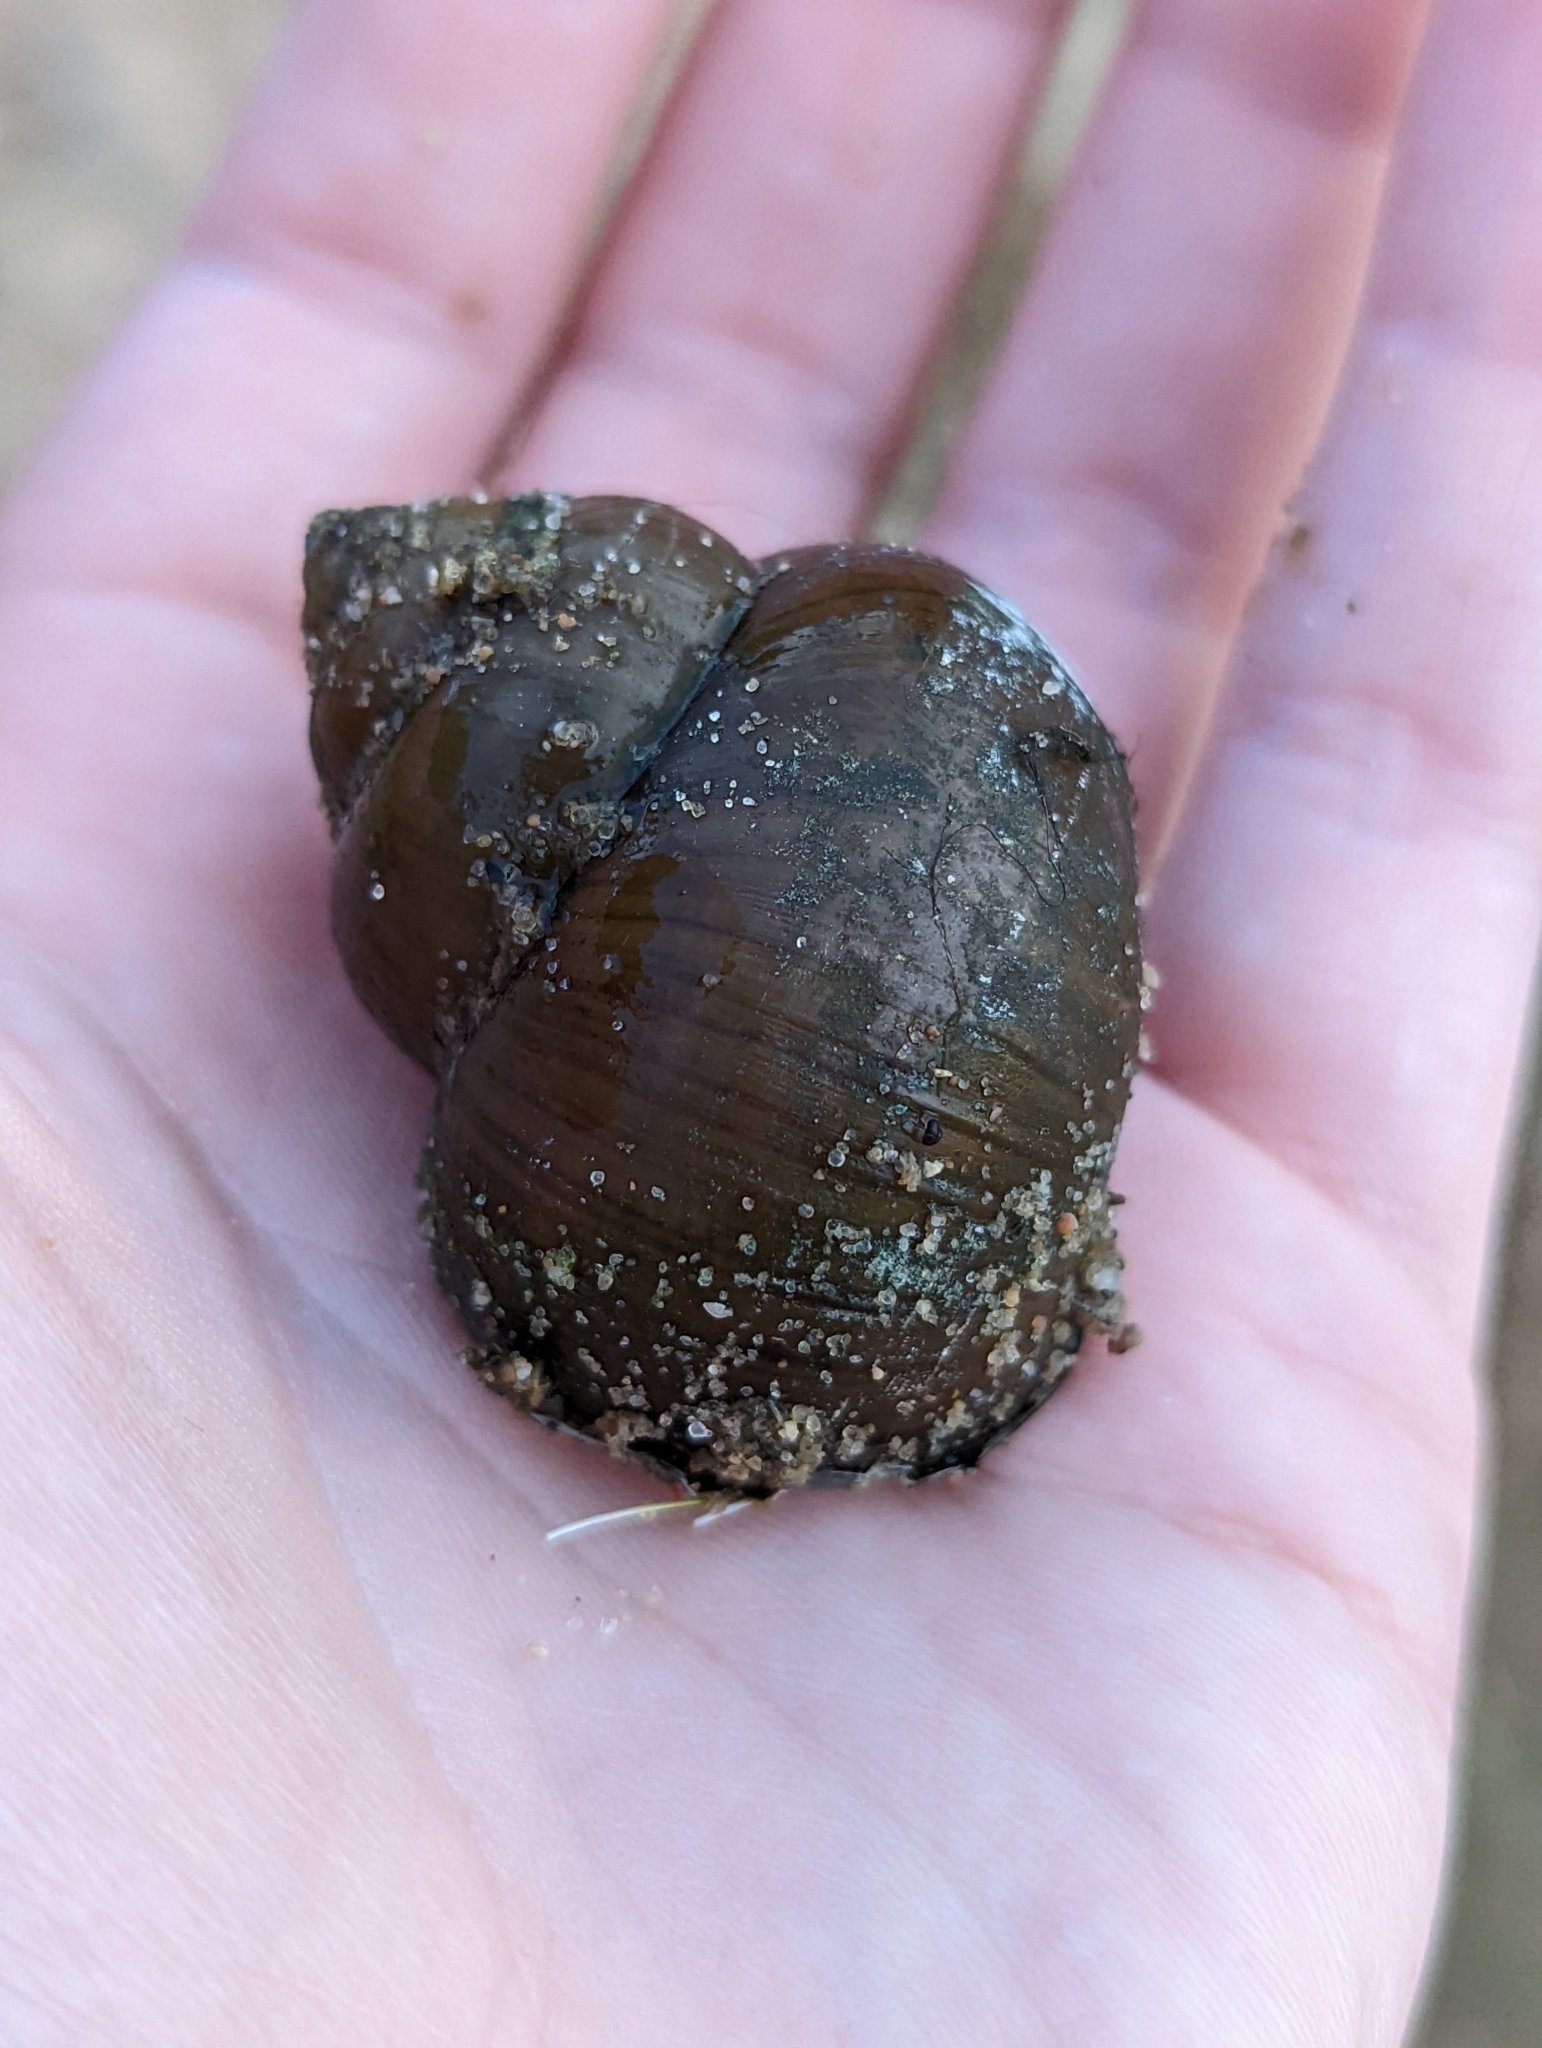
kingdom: Animalia
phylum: Mollusca
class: Gastropoda
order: Architaenioglossa
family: Viviparidae
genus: Cipangopaludina
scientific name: Cipangopaludina chinensis
